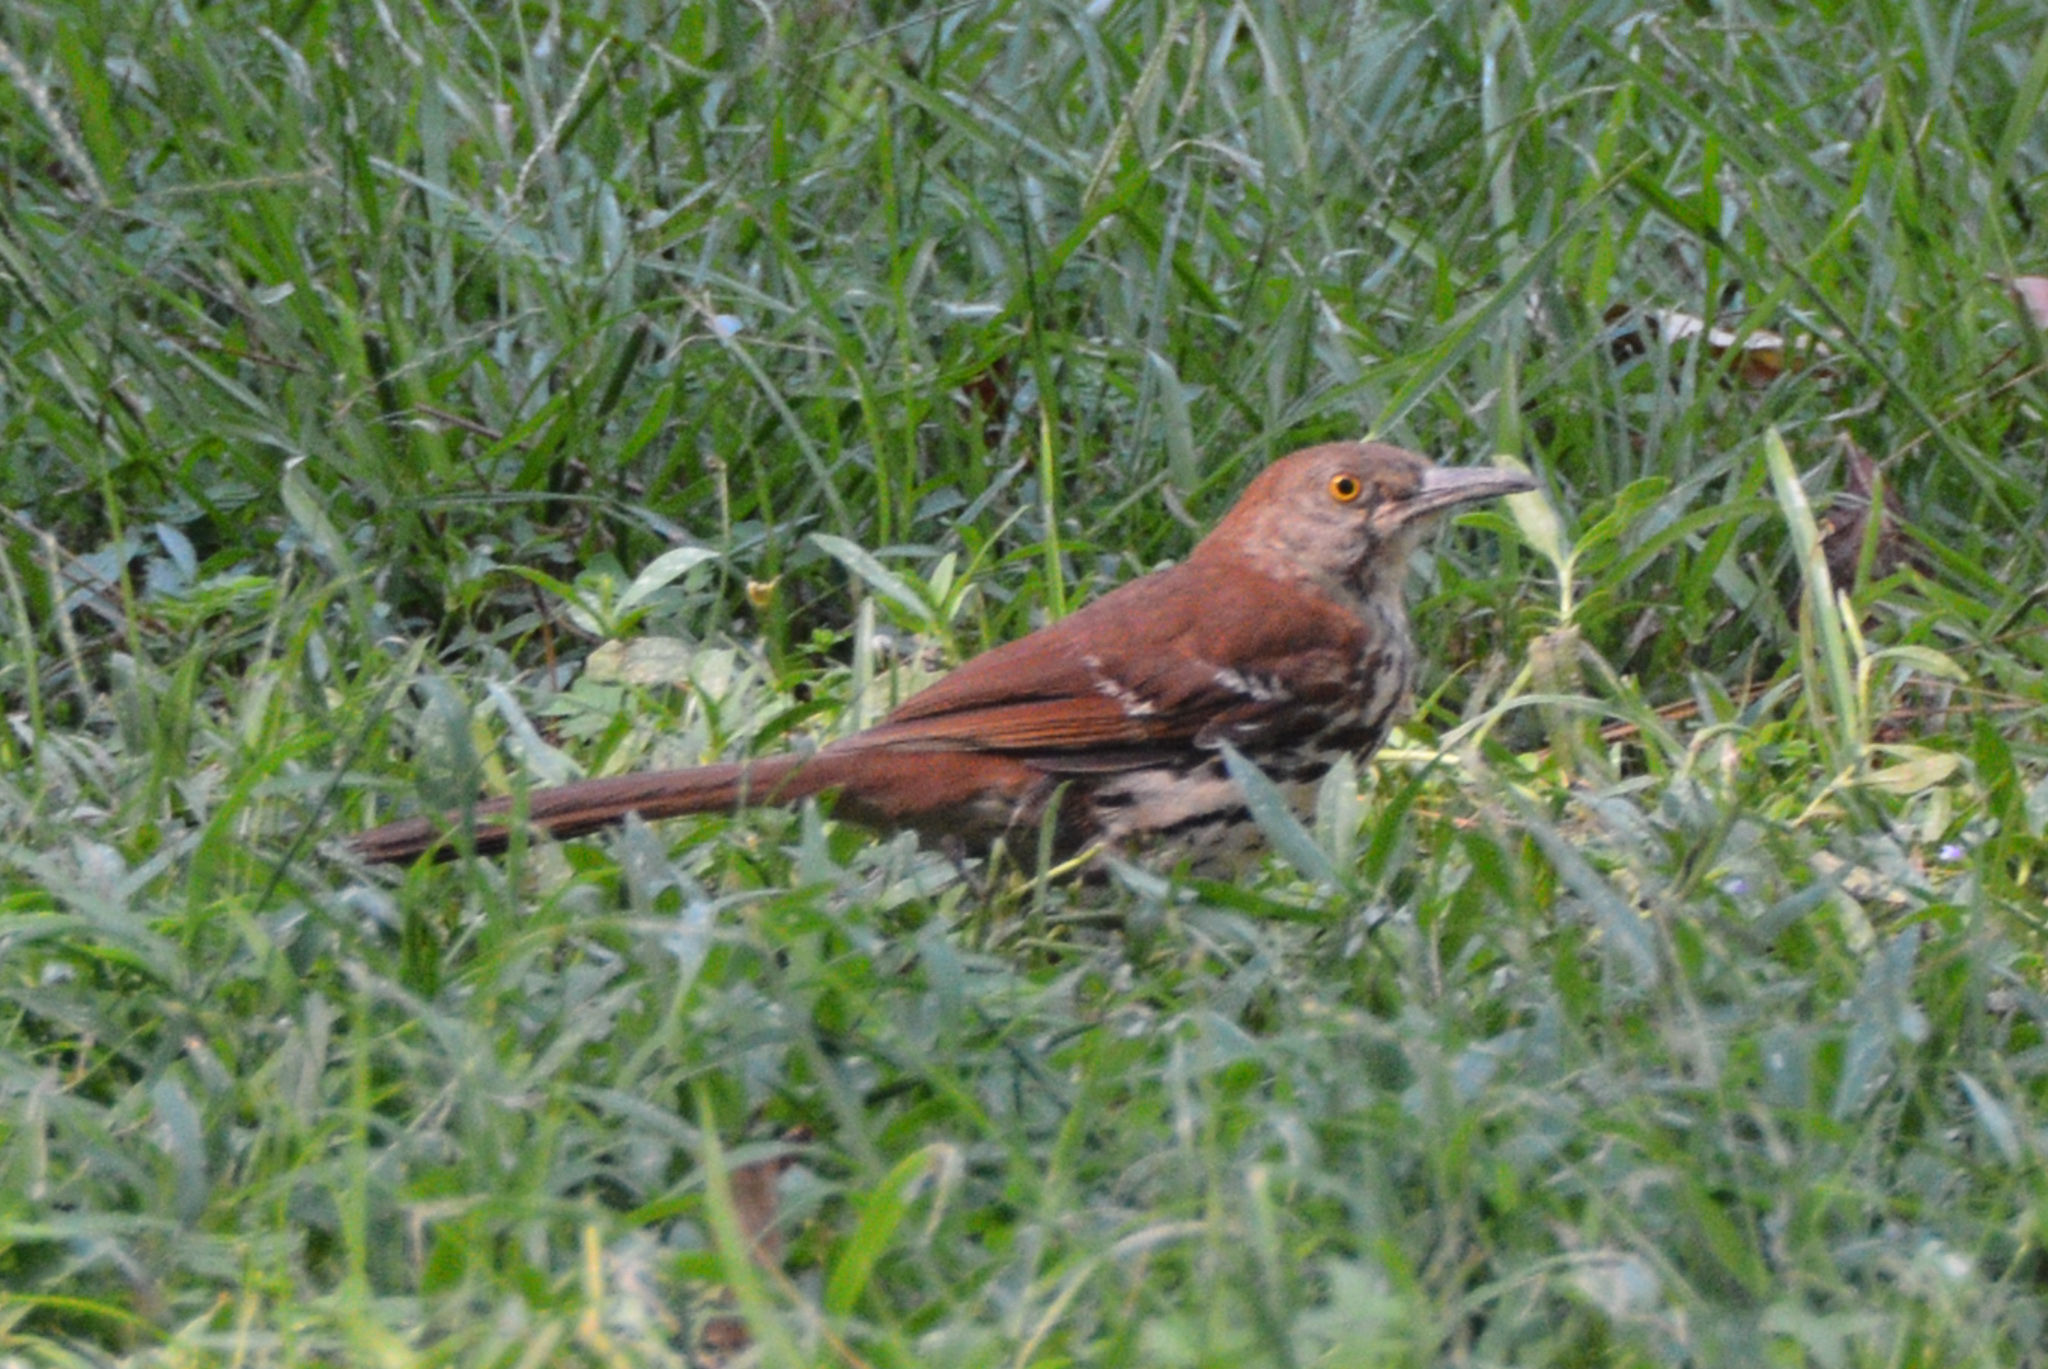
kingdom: Animalia
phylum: Chordata
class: Aves
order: Passeriformes
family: Mimidae
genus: Toxostoma
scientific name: Toxostoma rufum
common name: Brown thrasher
